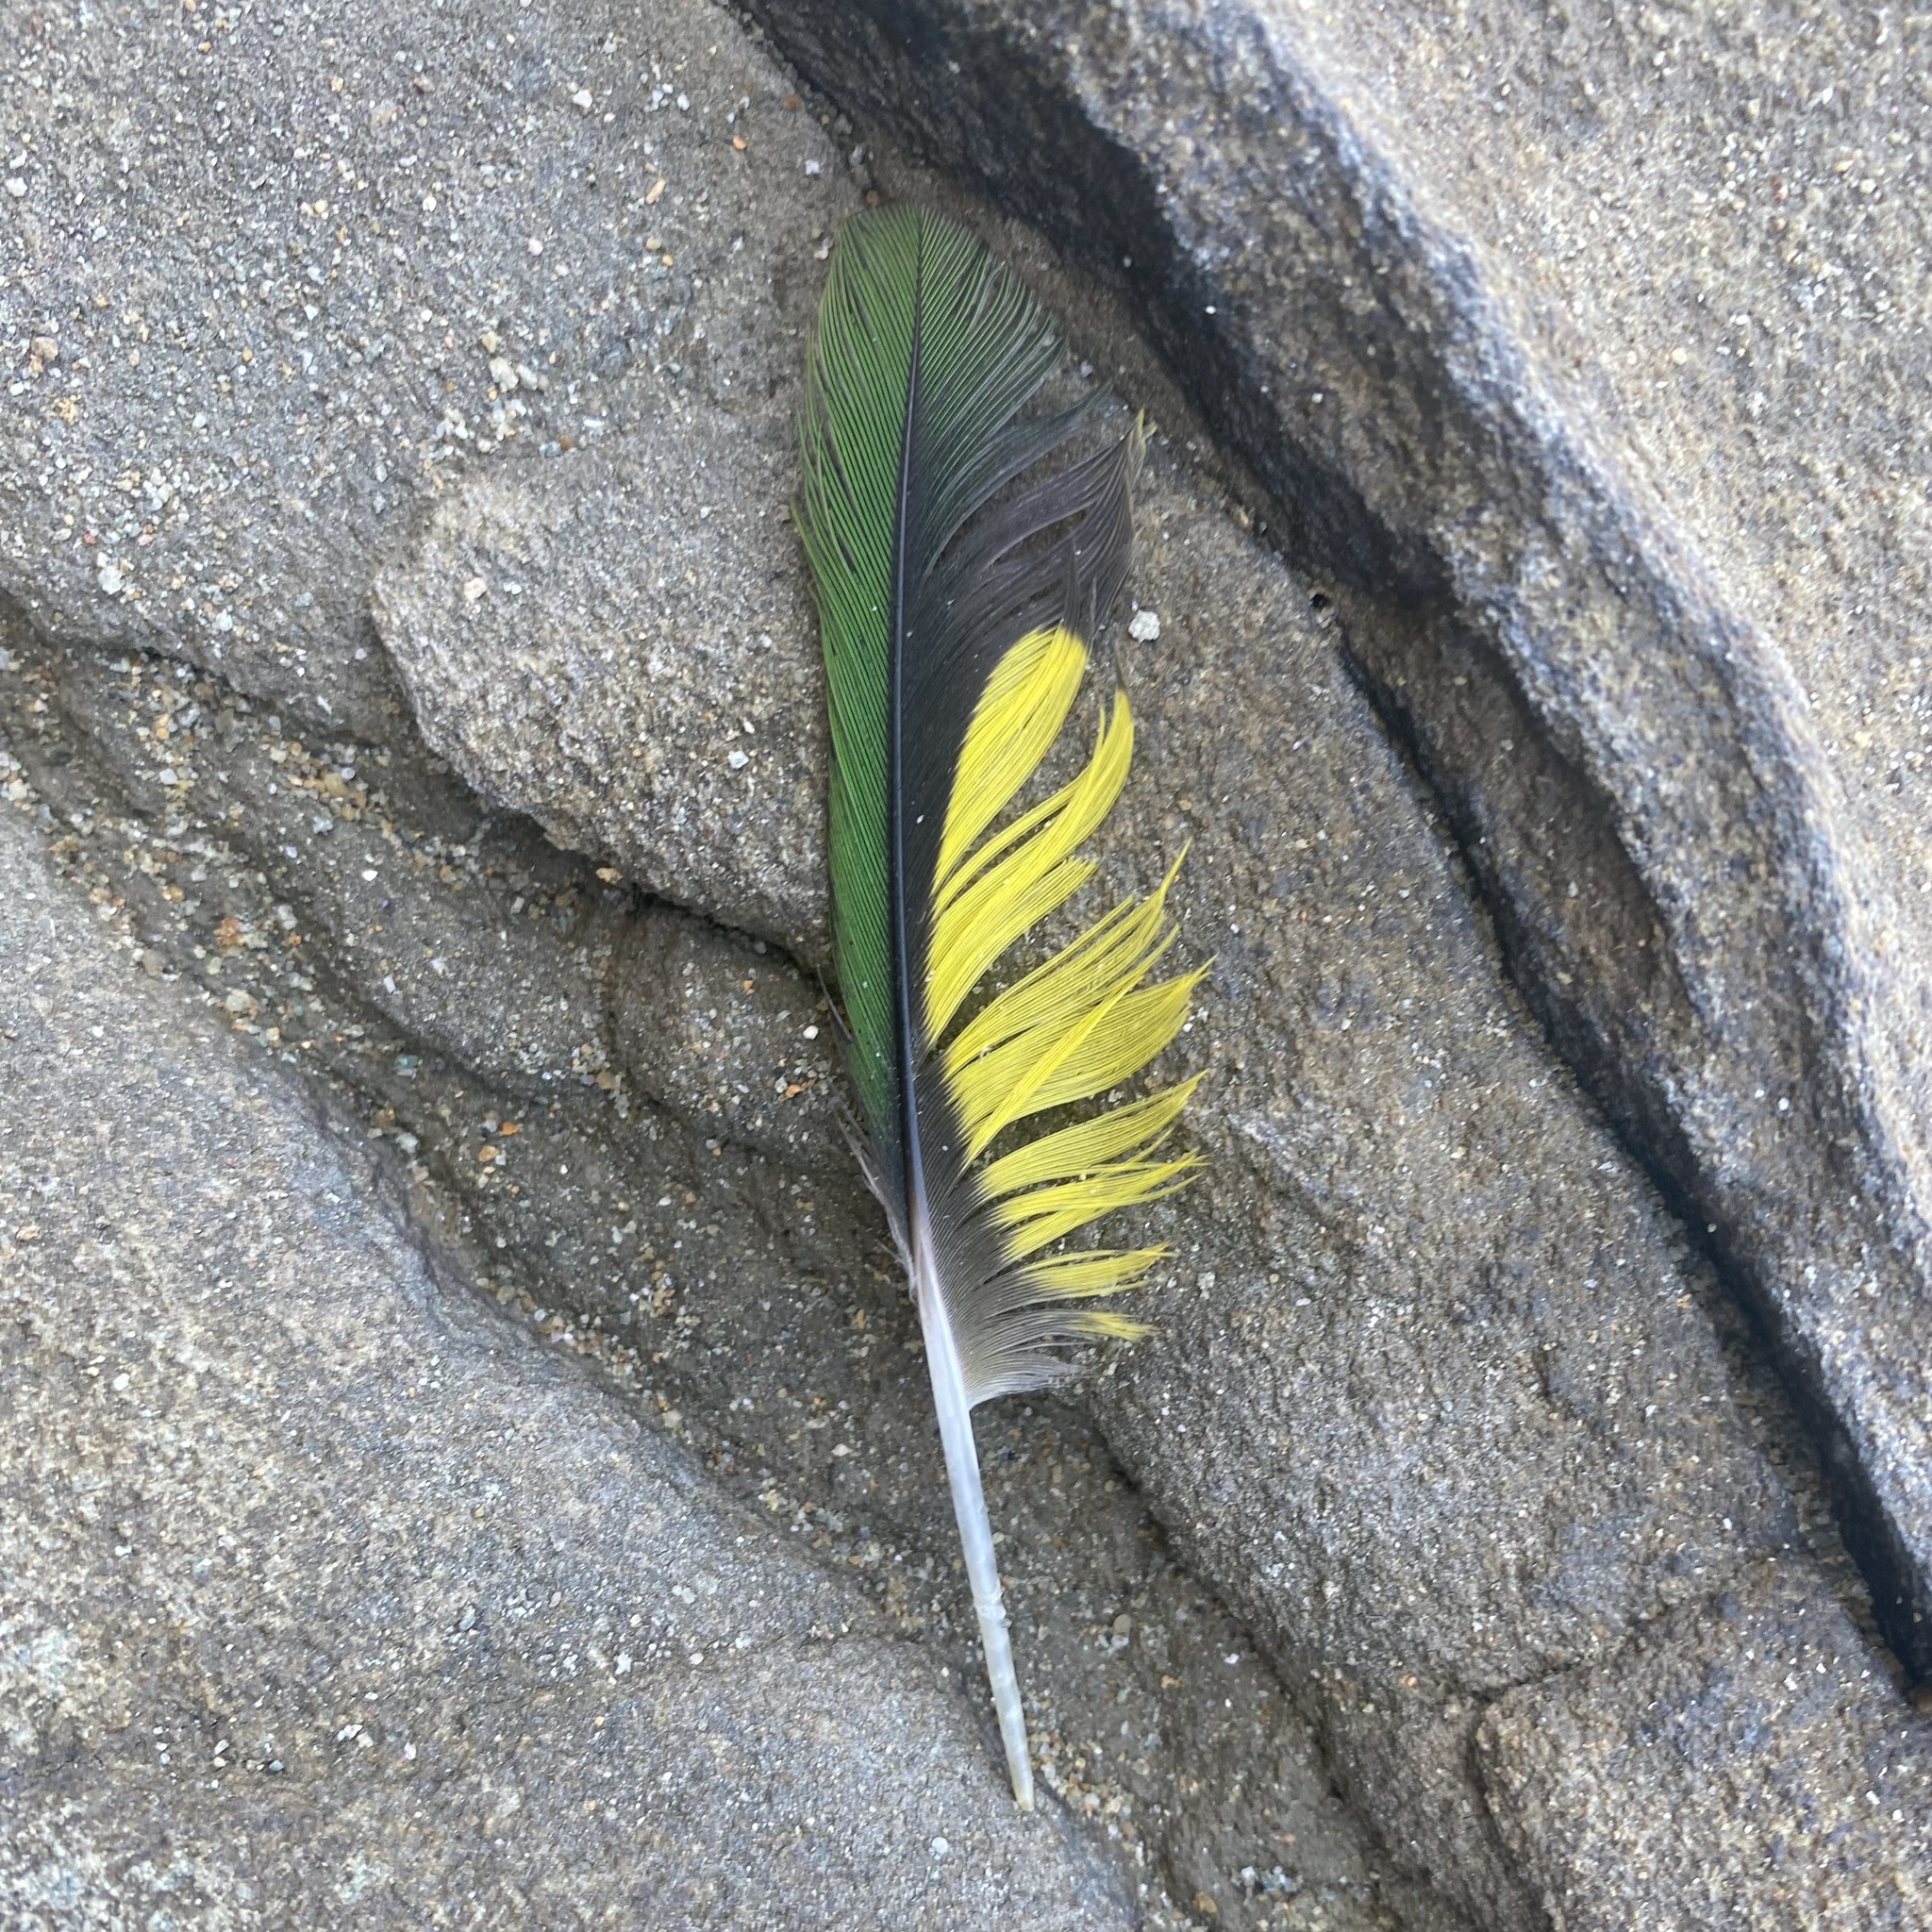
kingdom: Animalia
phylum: Chordata
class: Aves
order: Psittaciformes
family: Psittacidae
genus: Trichoglossus
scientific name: Trichoglossus haematodus
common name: Coconut lorikeet
